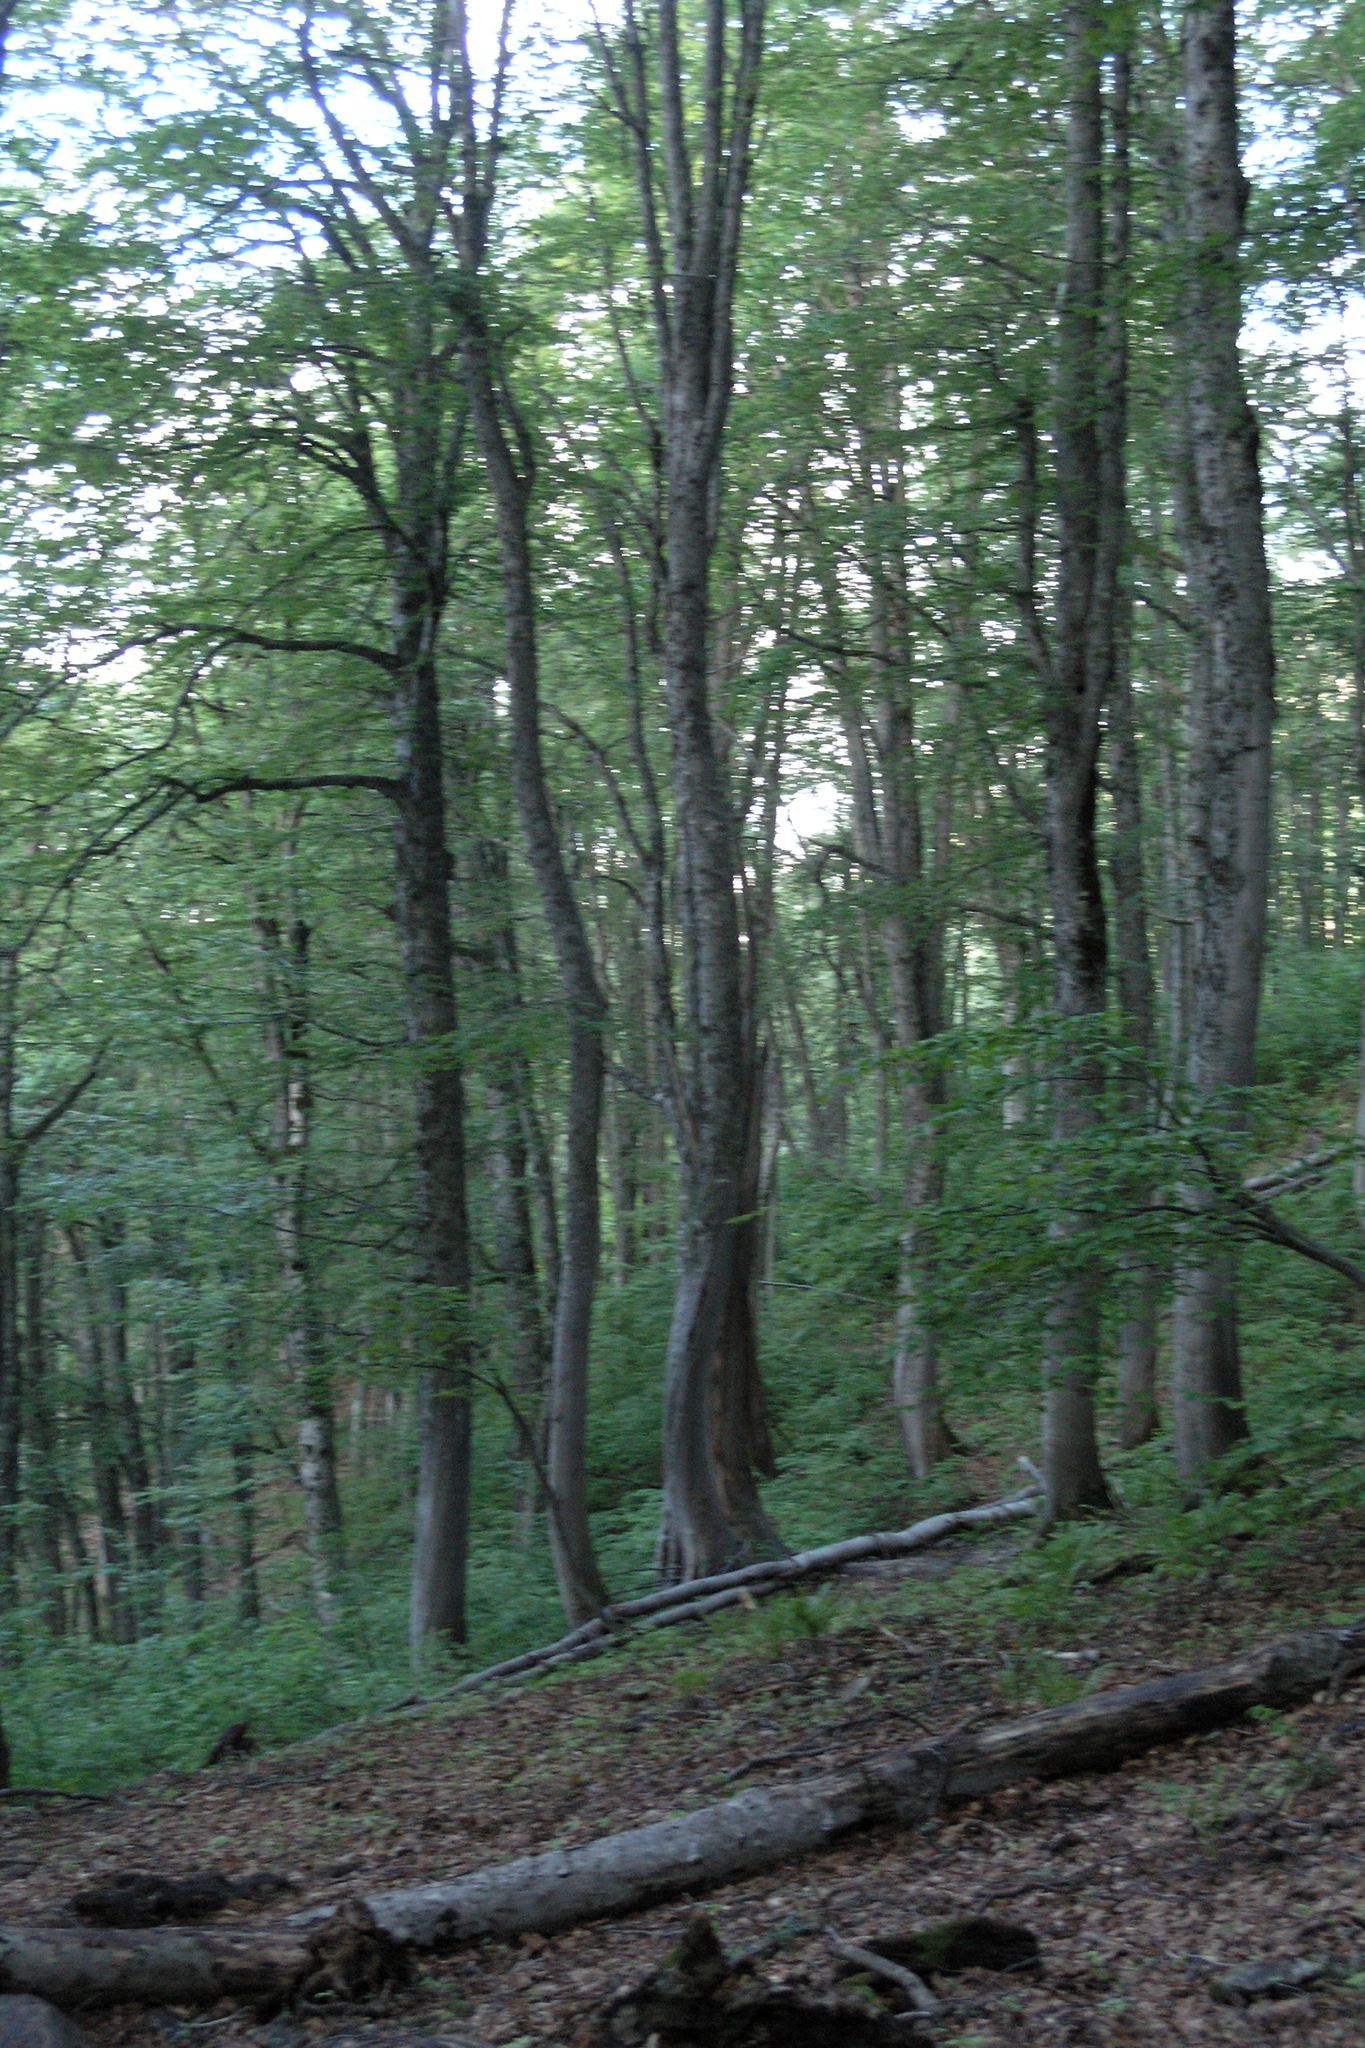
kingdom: Plantae
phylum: Tracheophyta
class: Magnoliopsida
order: Fagales
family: Fagaceae
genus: Fagus
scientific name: Fagus orientalis
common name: Oriental beech
